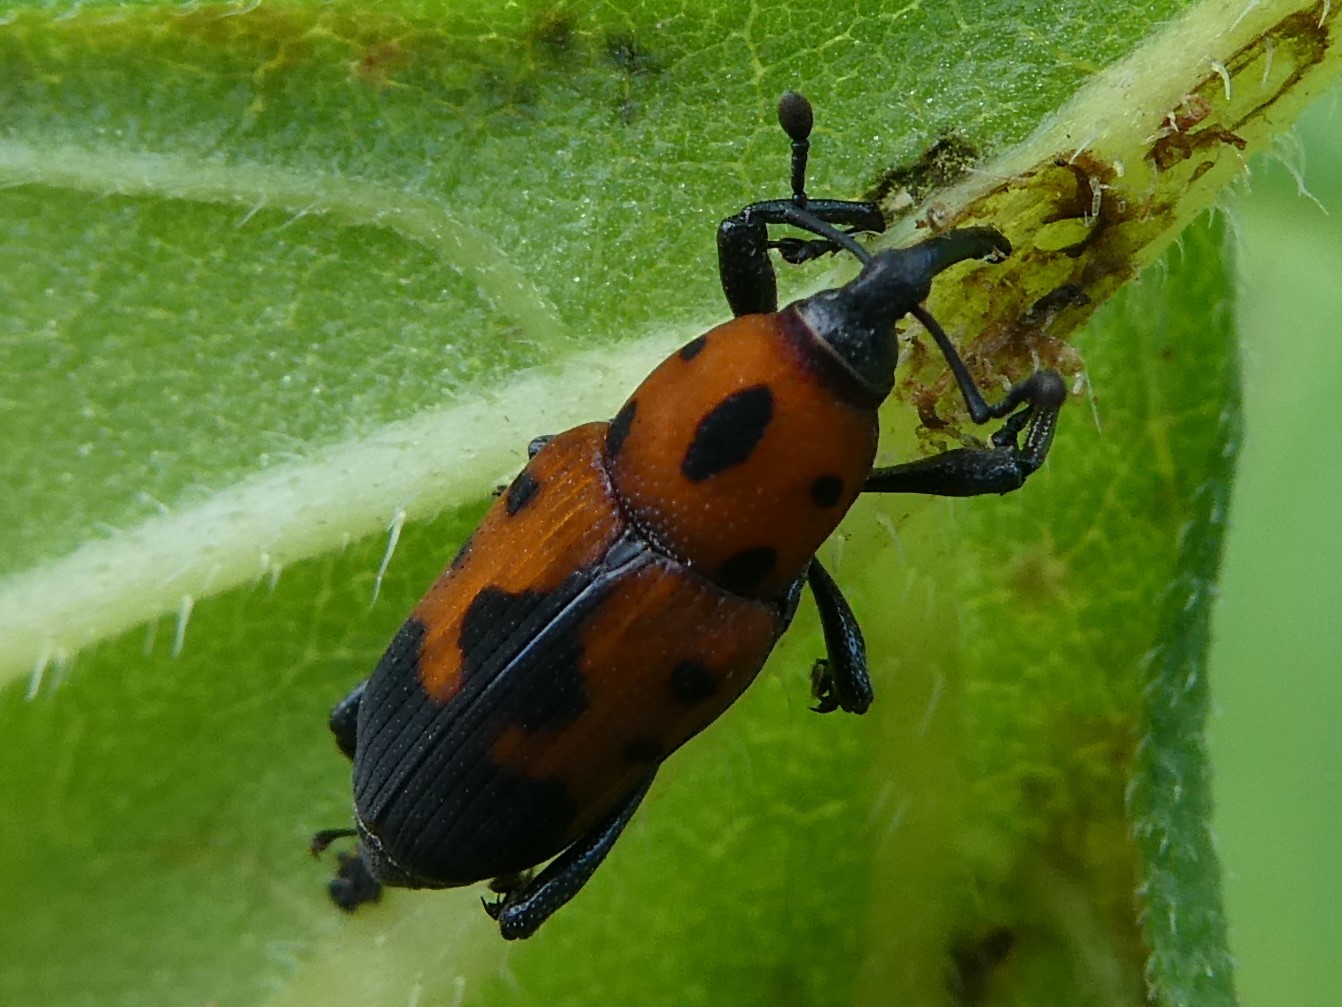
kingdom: Animalia
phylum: Arthropoda
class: Insecta
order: Coleoptera
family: Dryophthoridae
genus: Rhodobaenus
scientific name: Rhodobaenus quinquepunctatus
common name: Cocklebur weevil
